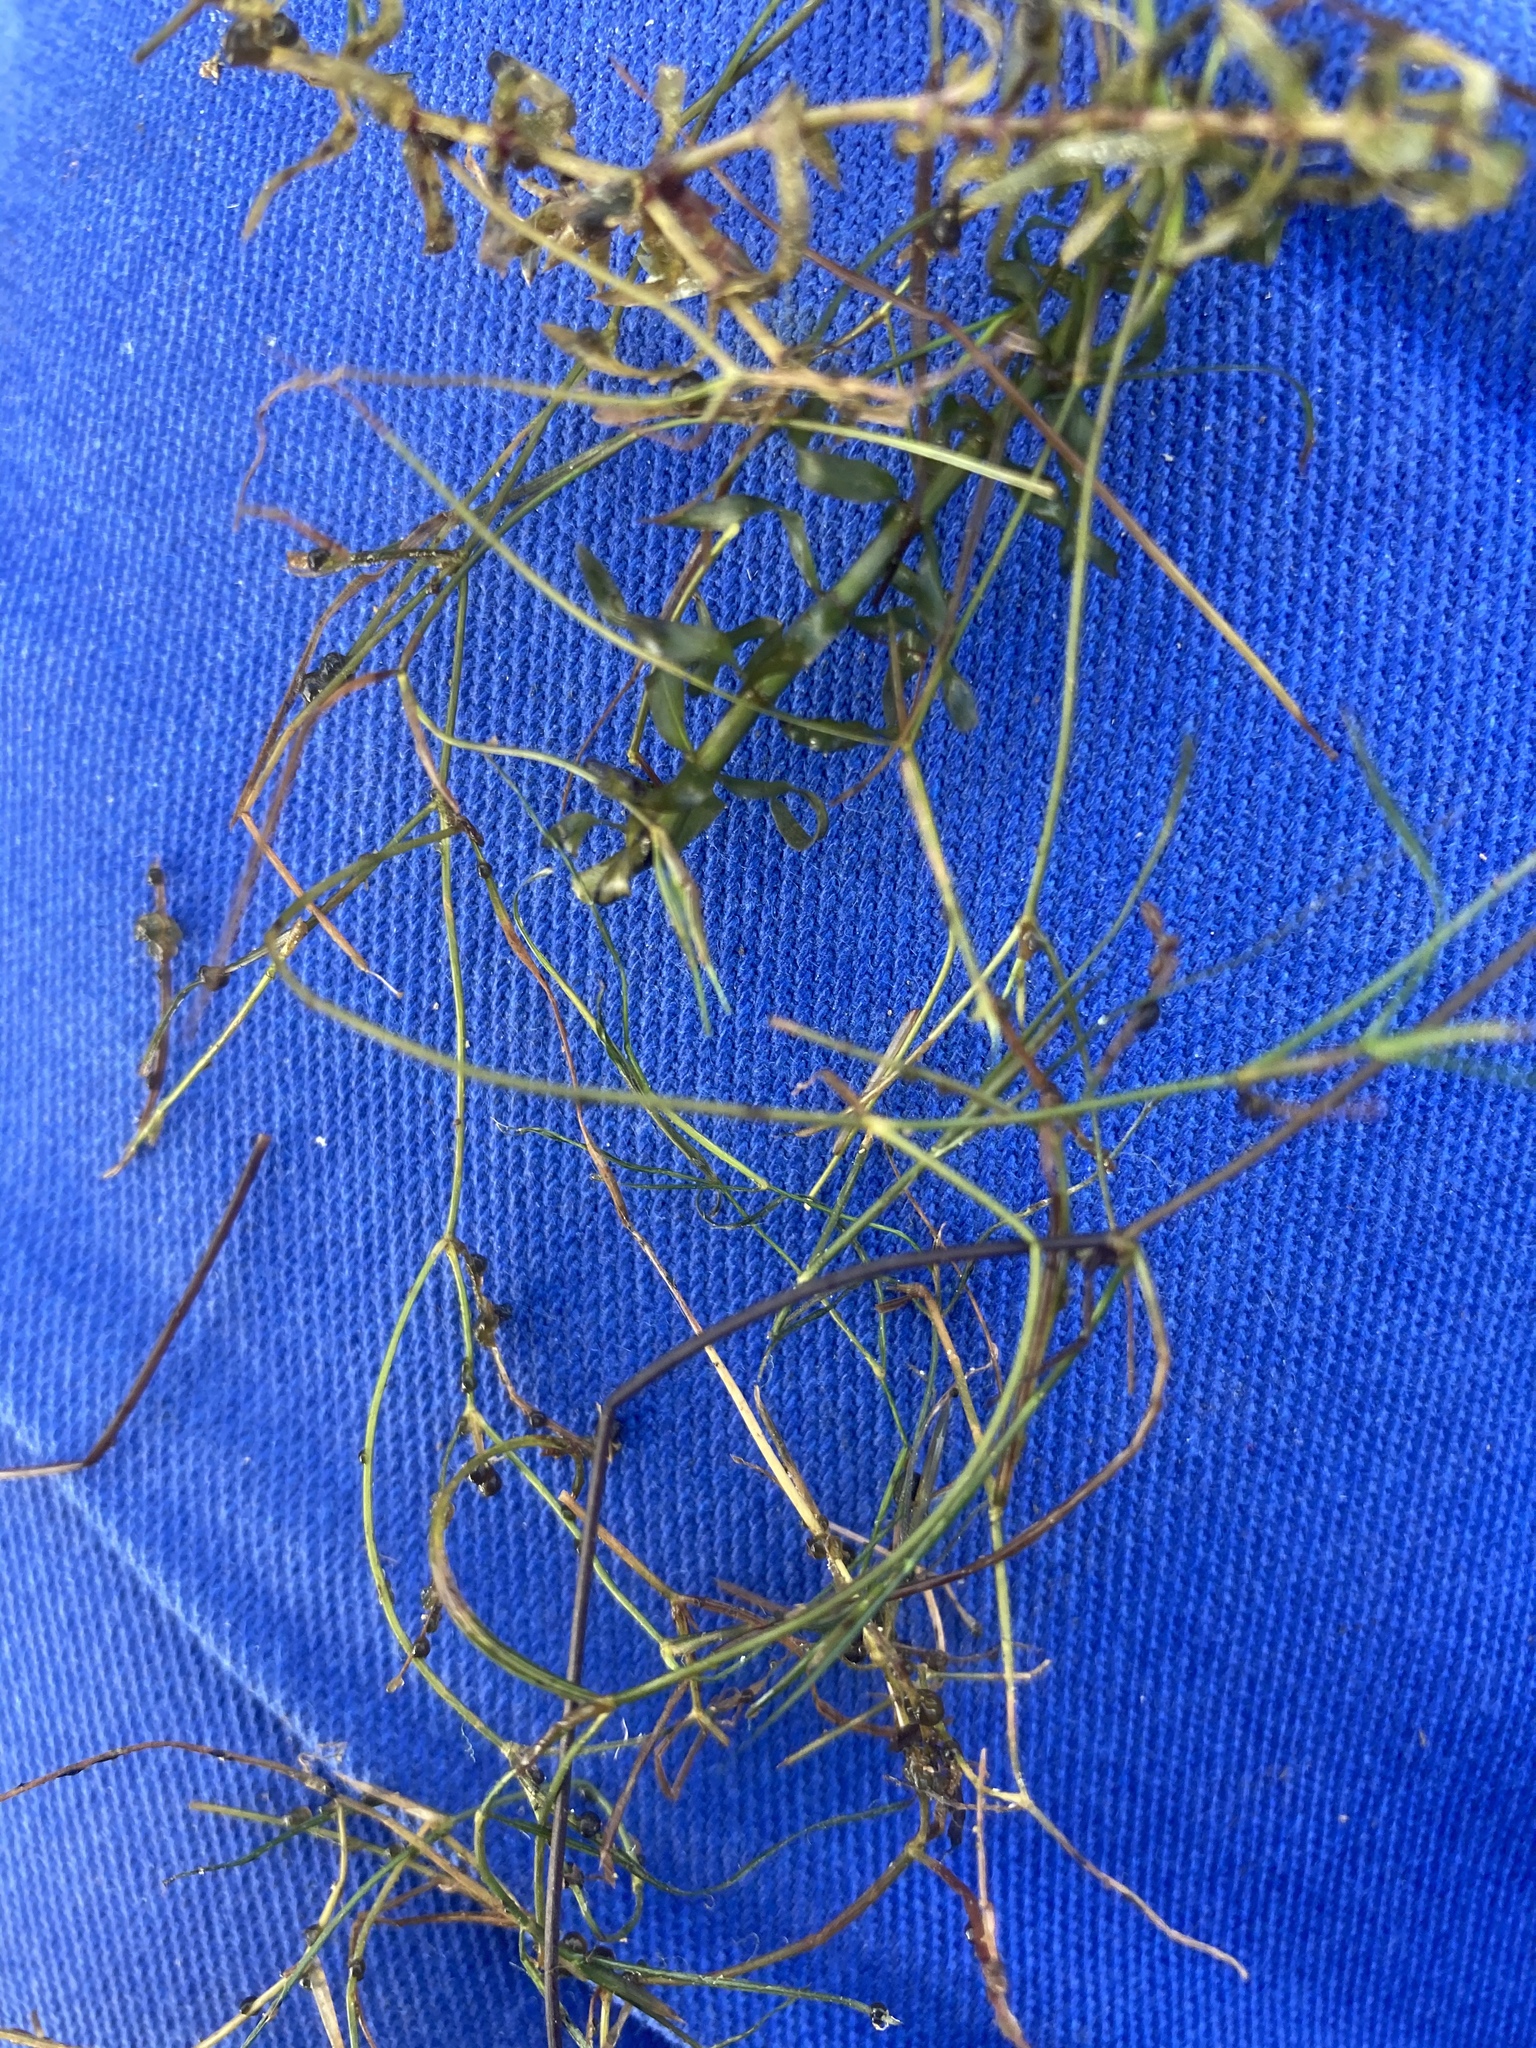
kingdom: Plantae
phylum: Tracheophyta
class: Liliopsida
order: Alismatales
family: Potamogetonaceae
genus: Potamogeton
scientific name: Potamogeton trichoides
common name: Hairlike pondweed
